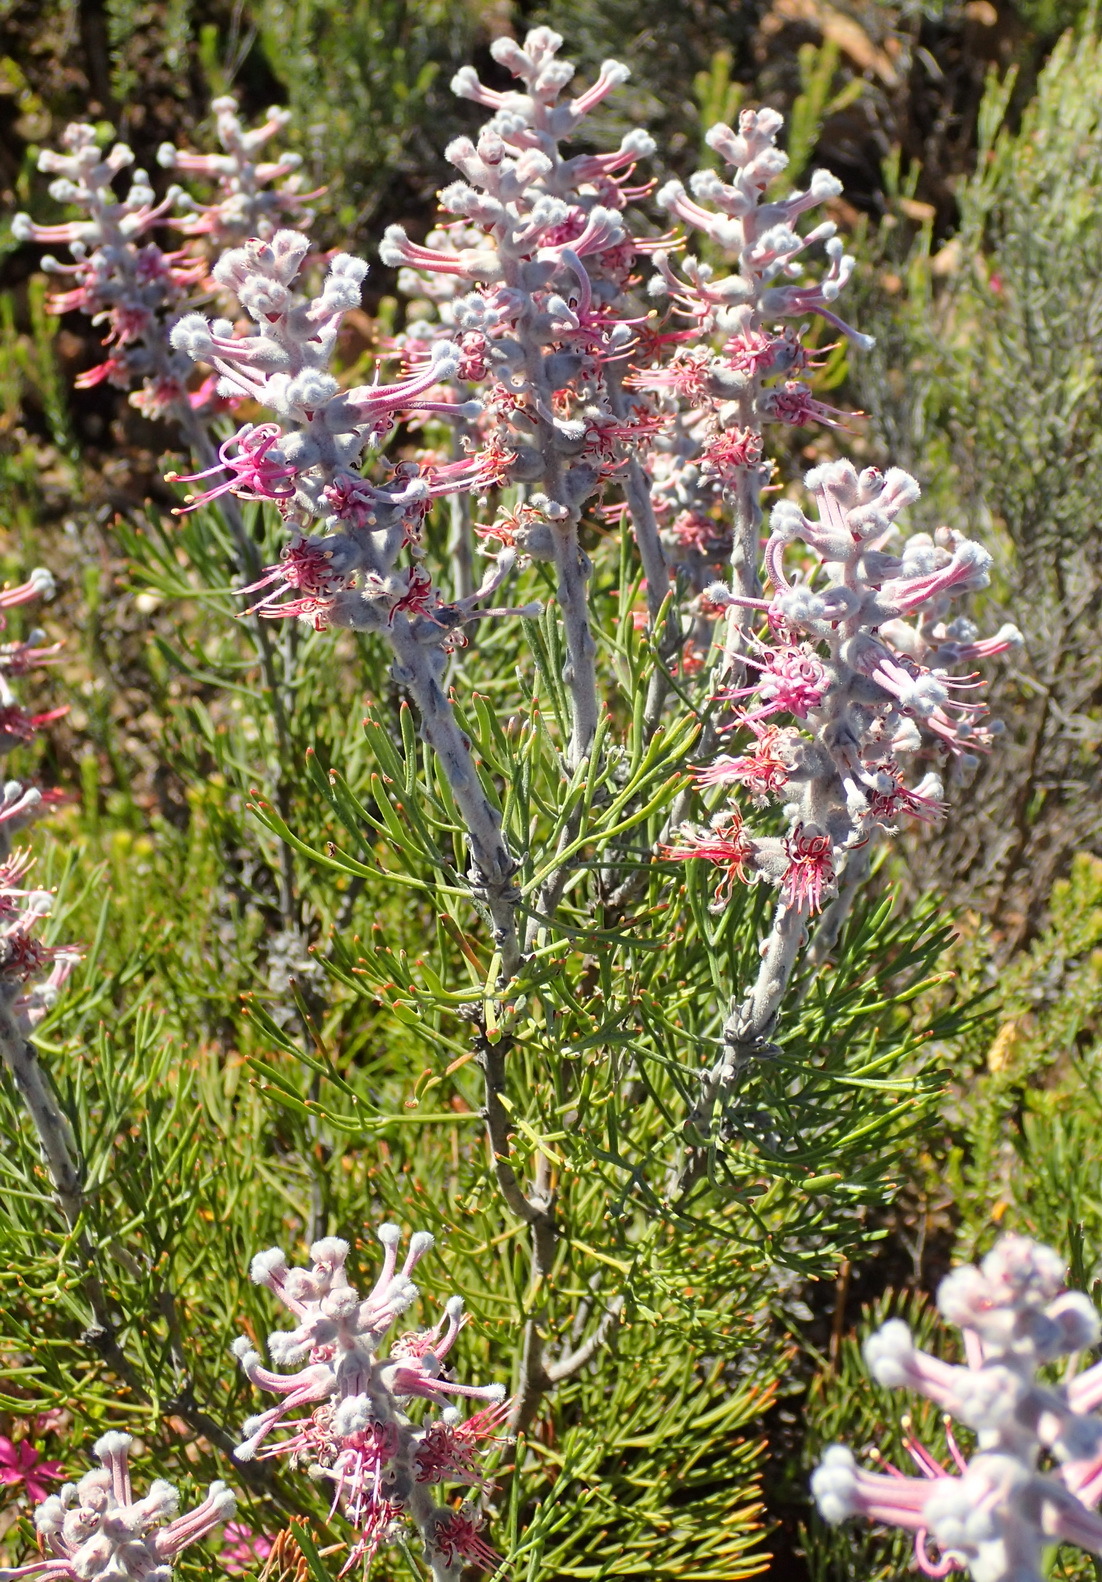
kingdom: Plantae
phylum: Tracheophyta
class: Magnoliopsida
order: Proteales
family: Proteaceae
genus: Paranomus
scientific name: Paranomus dispersus
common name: Long-head sceptre
